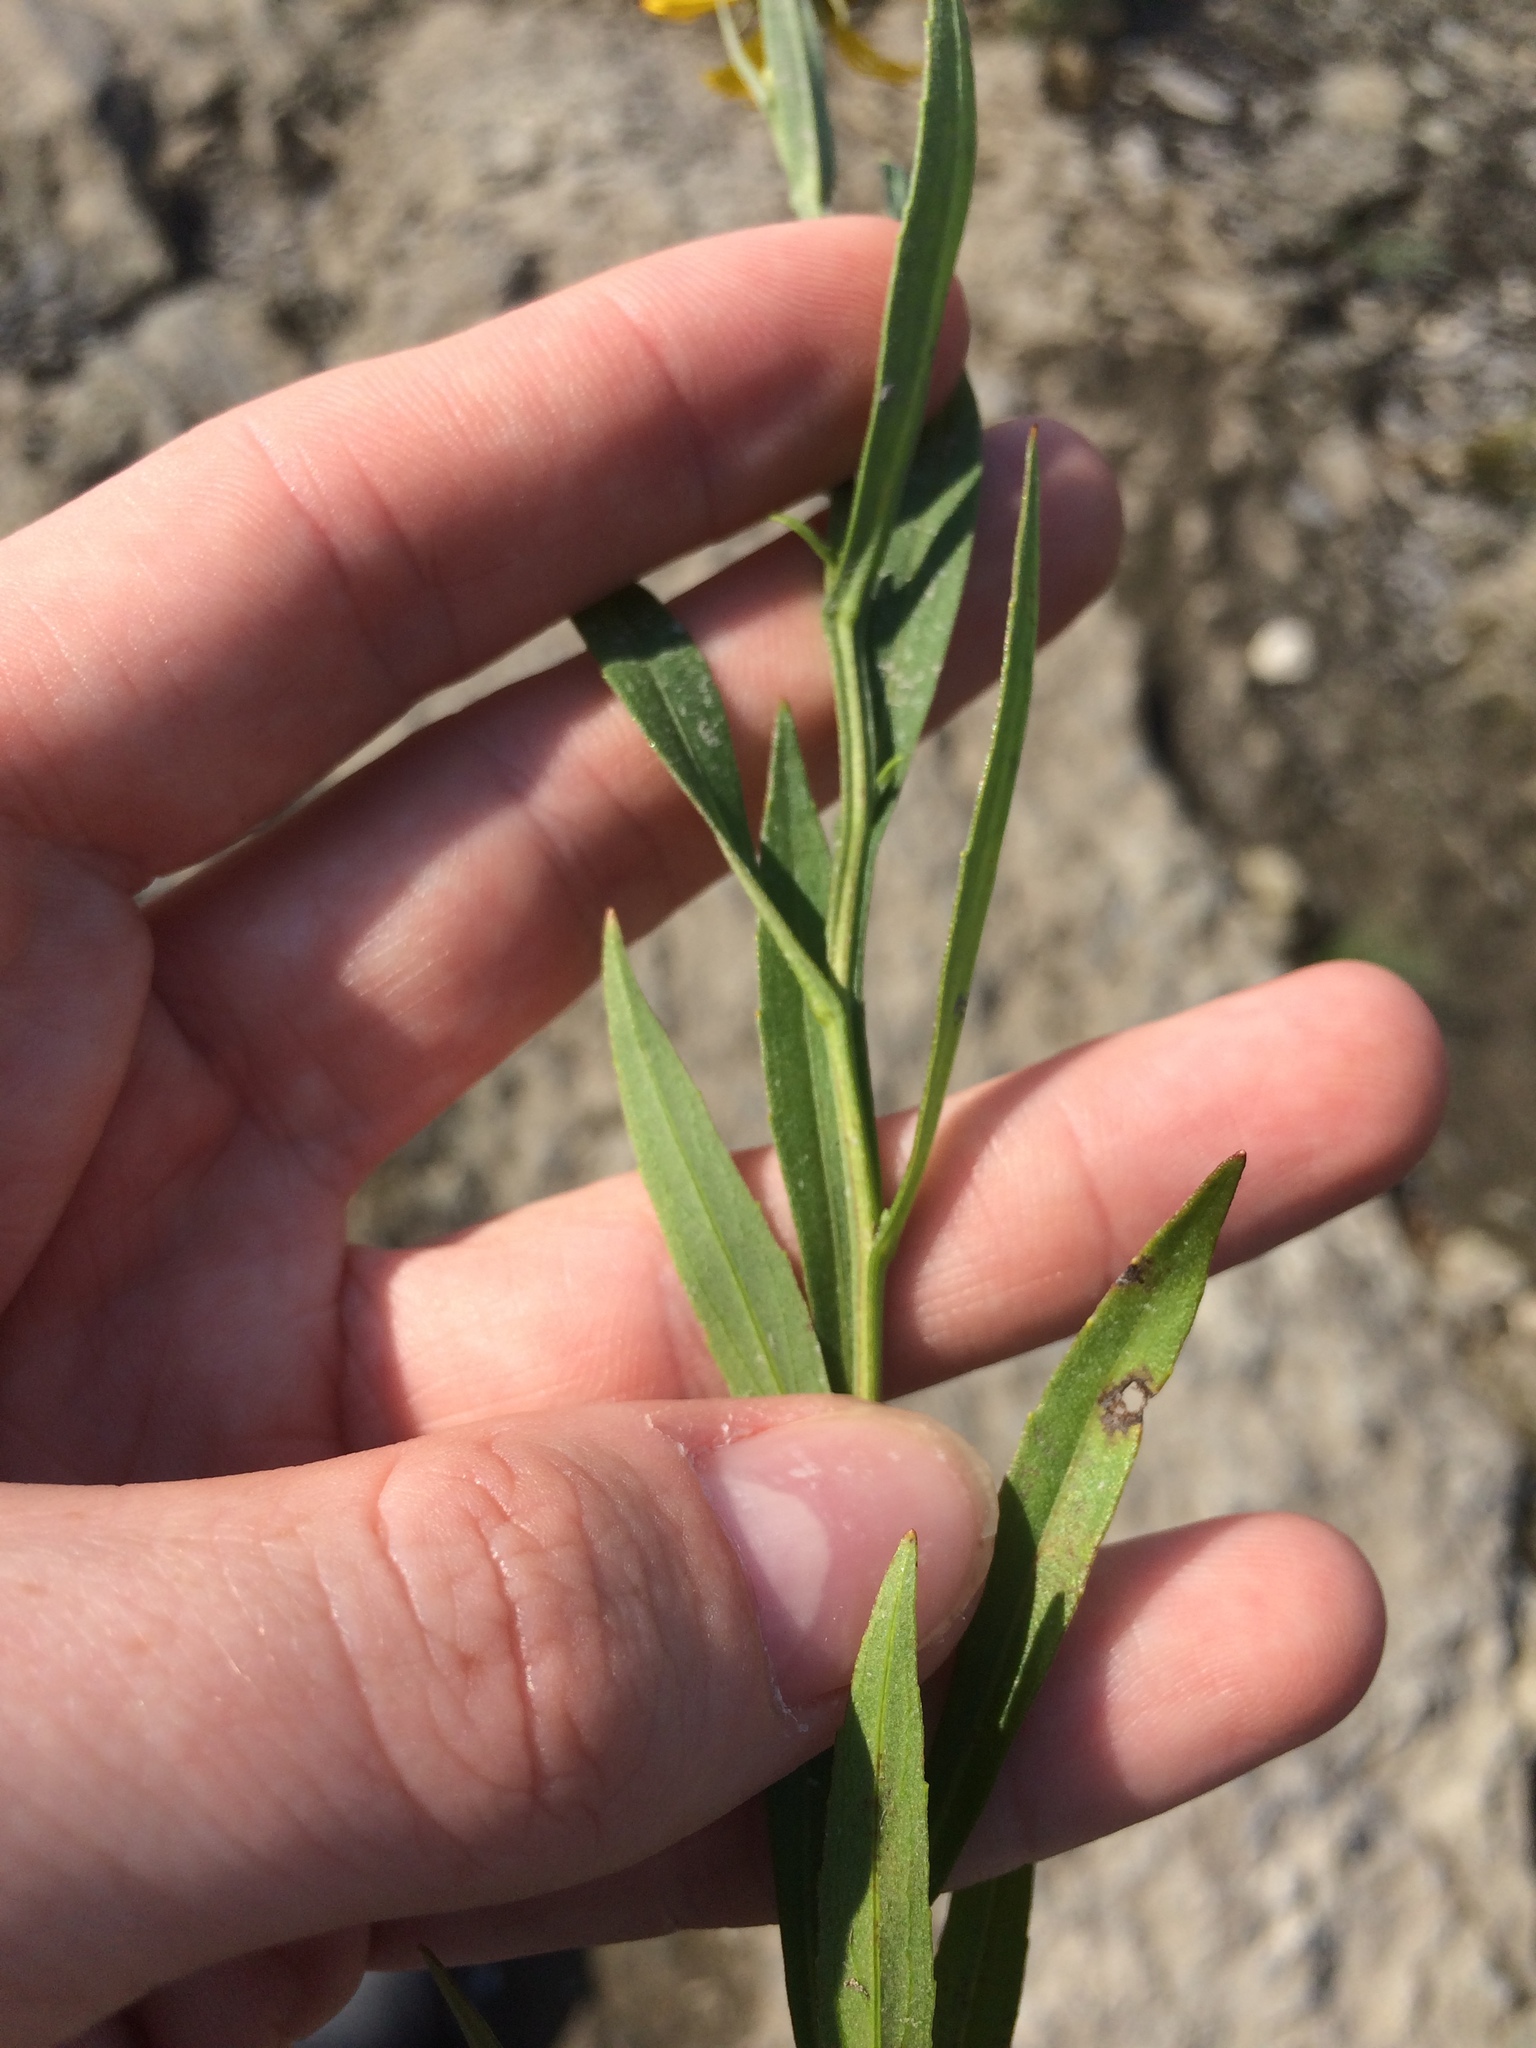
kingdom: Plantae
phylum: Tracheophyta
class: Magnoliopsida
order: Asterales
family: Asteraceae
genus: Helenium
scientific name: Helenium autumnale
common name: Sneezeweed
